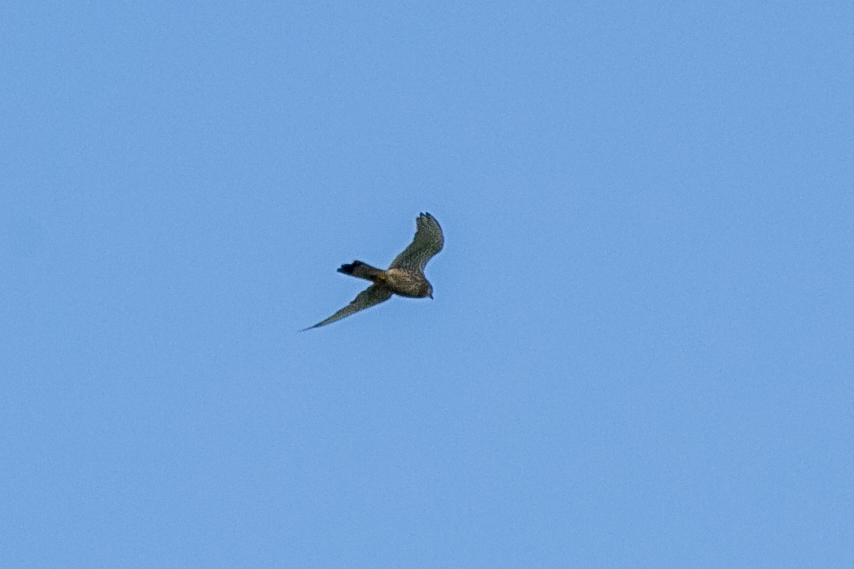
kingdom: Animalia
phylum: Chordata
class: Aves
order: Falconiformes
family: Falconidae
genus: Falco
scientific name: Falco tinnunculus
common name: Common kestrel
